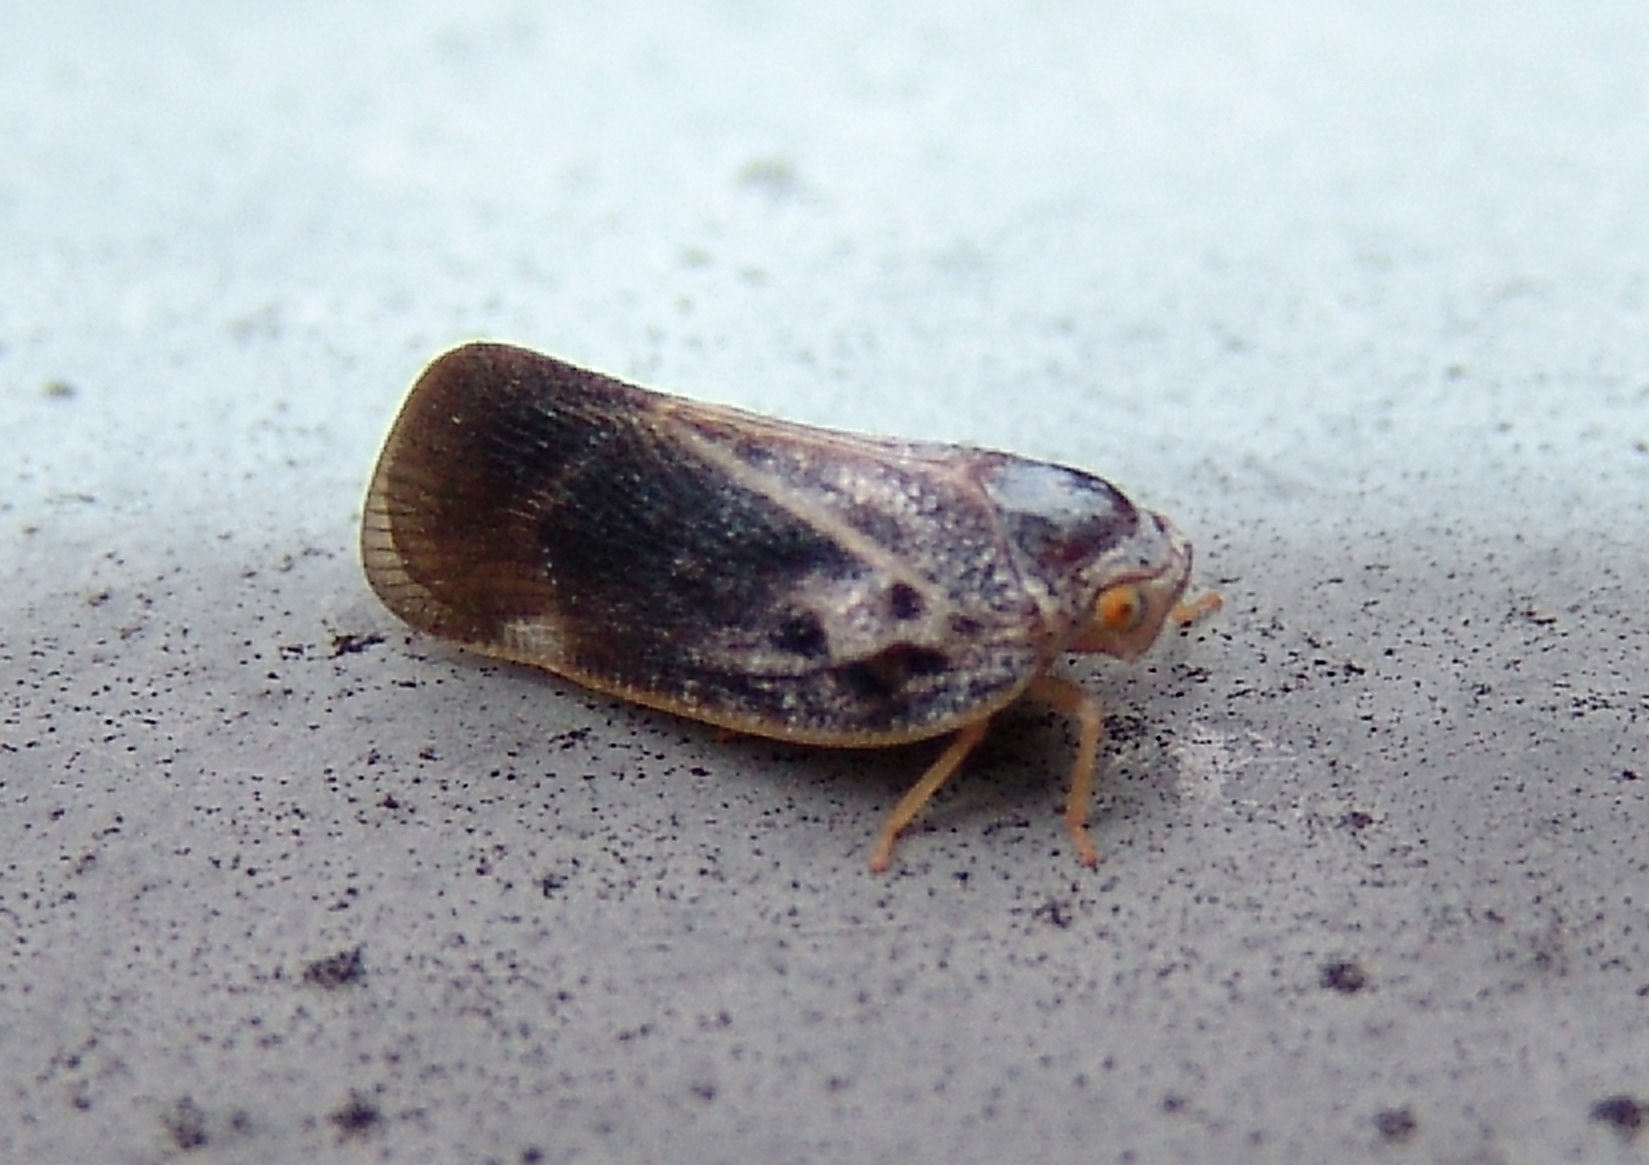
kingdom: Animalia
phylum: Arthropoda
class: Insecta
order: Hemiptera
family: Flatidae
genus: Metcalfa
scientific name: Metcalfa pruinosa
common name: Citrus flatid planthopper
